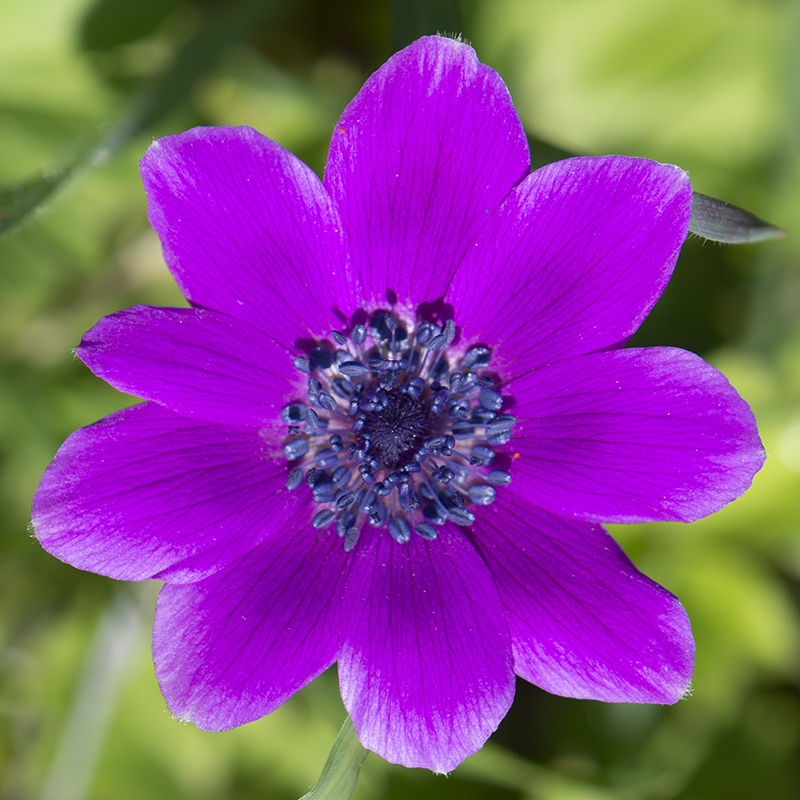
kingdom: Plantae
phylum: Tracheophyta
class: Magnoliopsida
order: Ranunculales
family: Ranunculaceae
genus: Anemone
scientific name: Anemone
